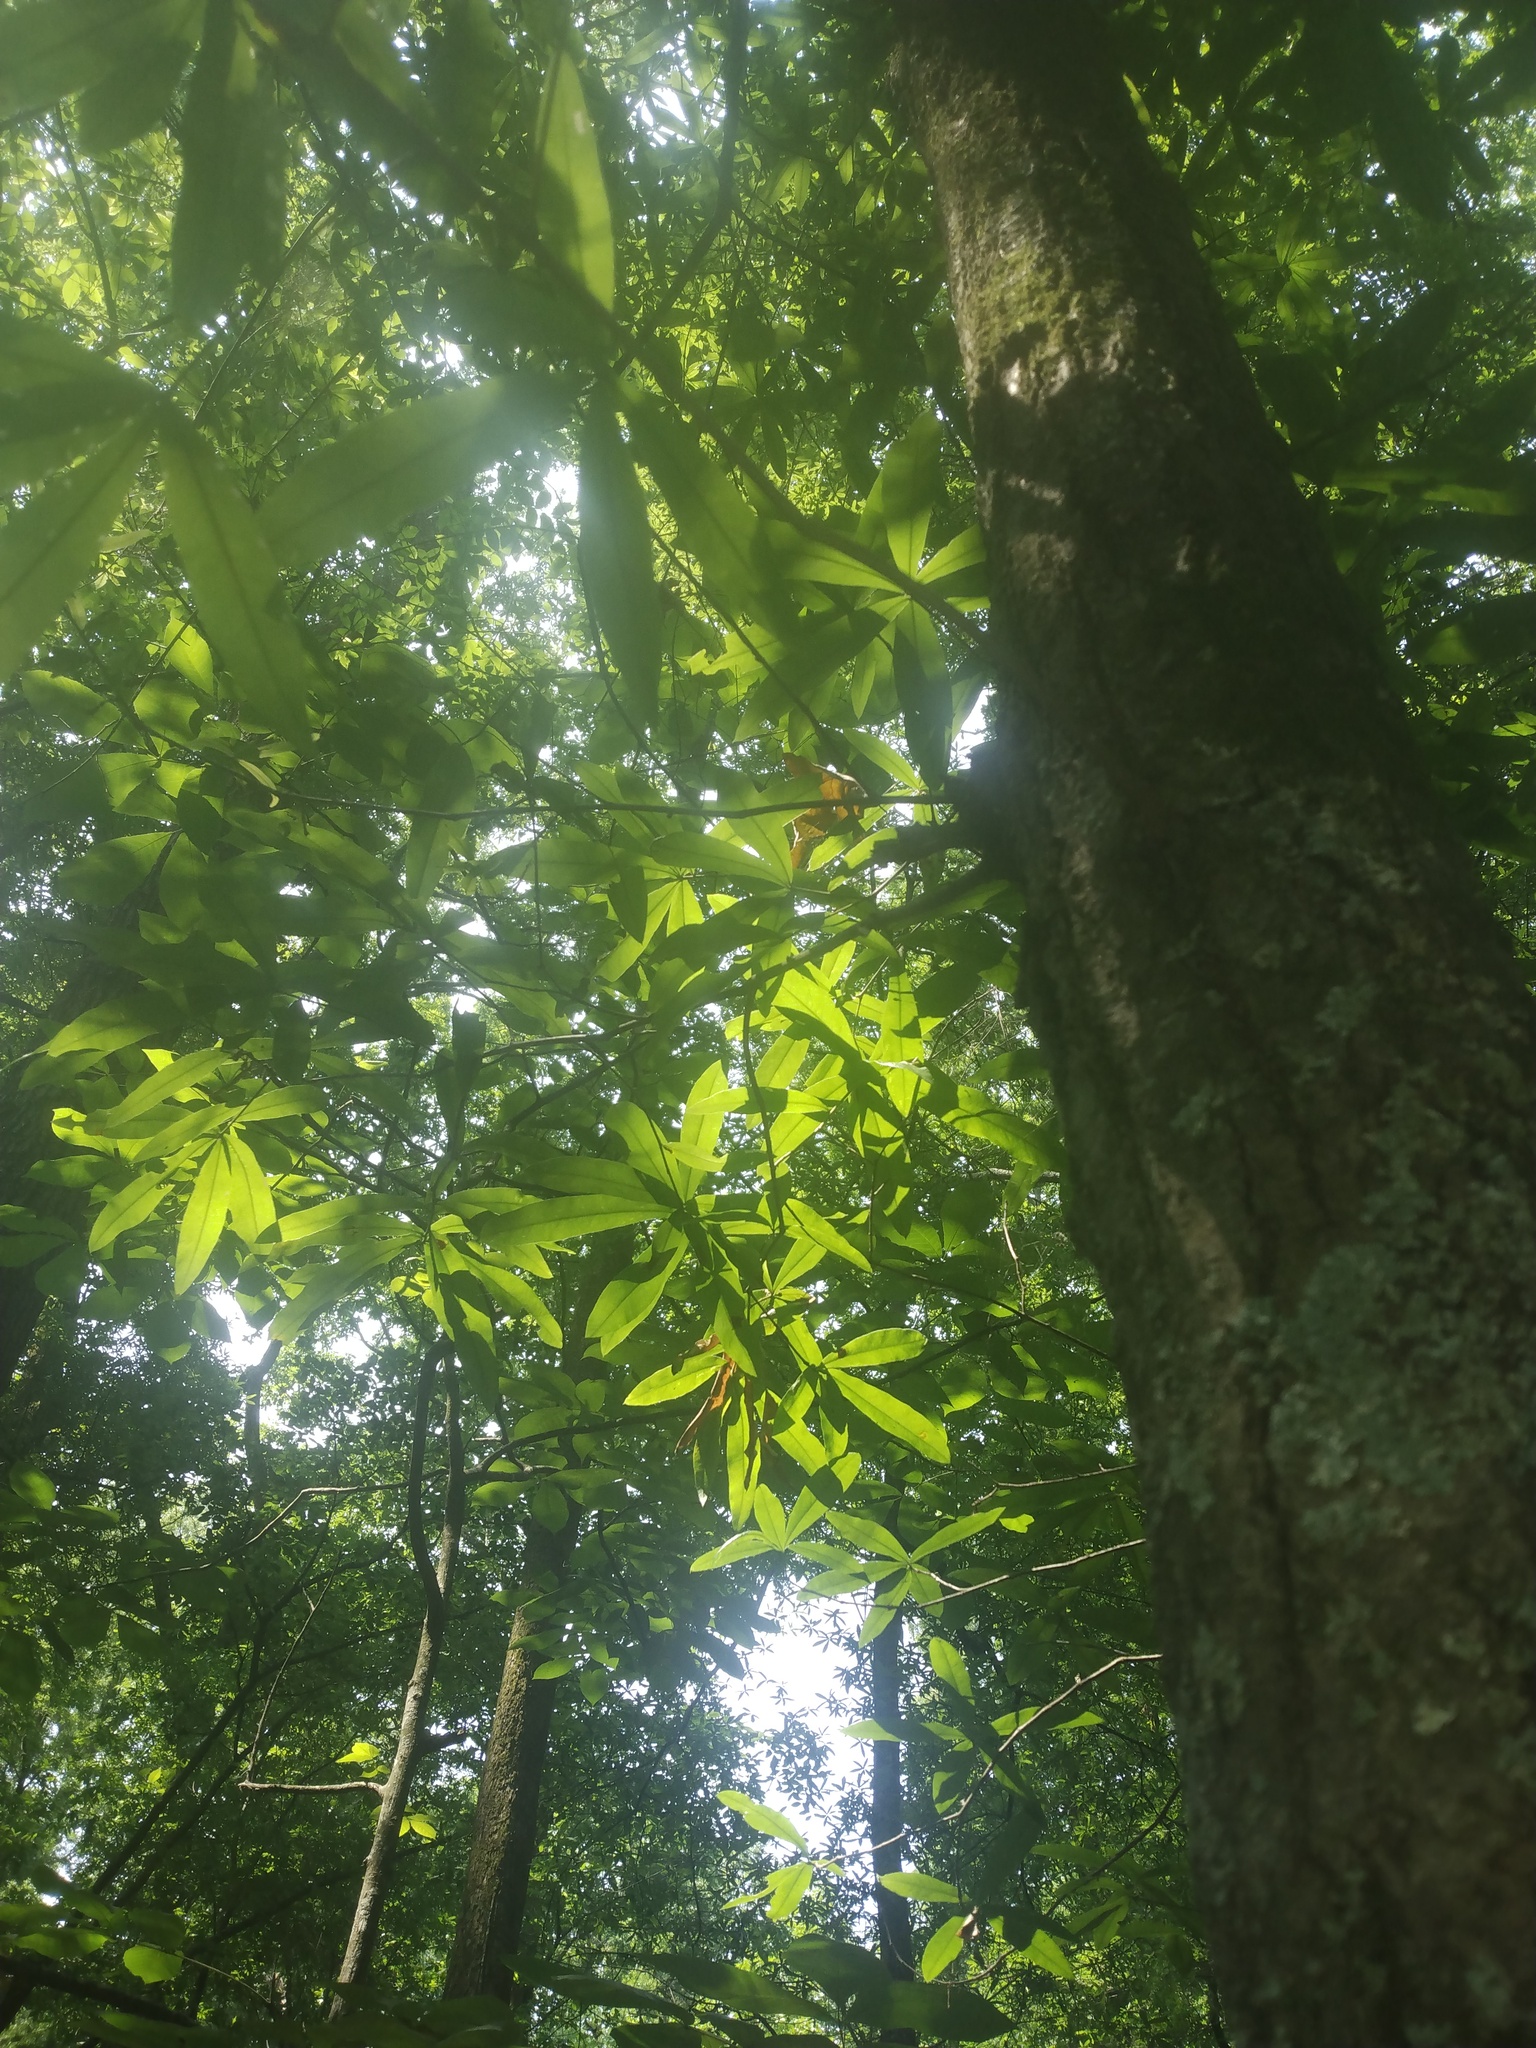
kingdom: Plantae
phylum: Tracheophyta
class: Magnoliopsida
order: Fagales
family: Fagaceae
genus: Quercus
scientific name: Quercus phellos
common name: Willow oak
